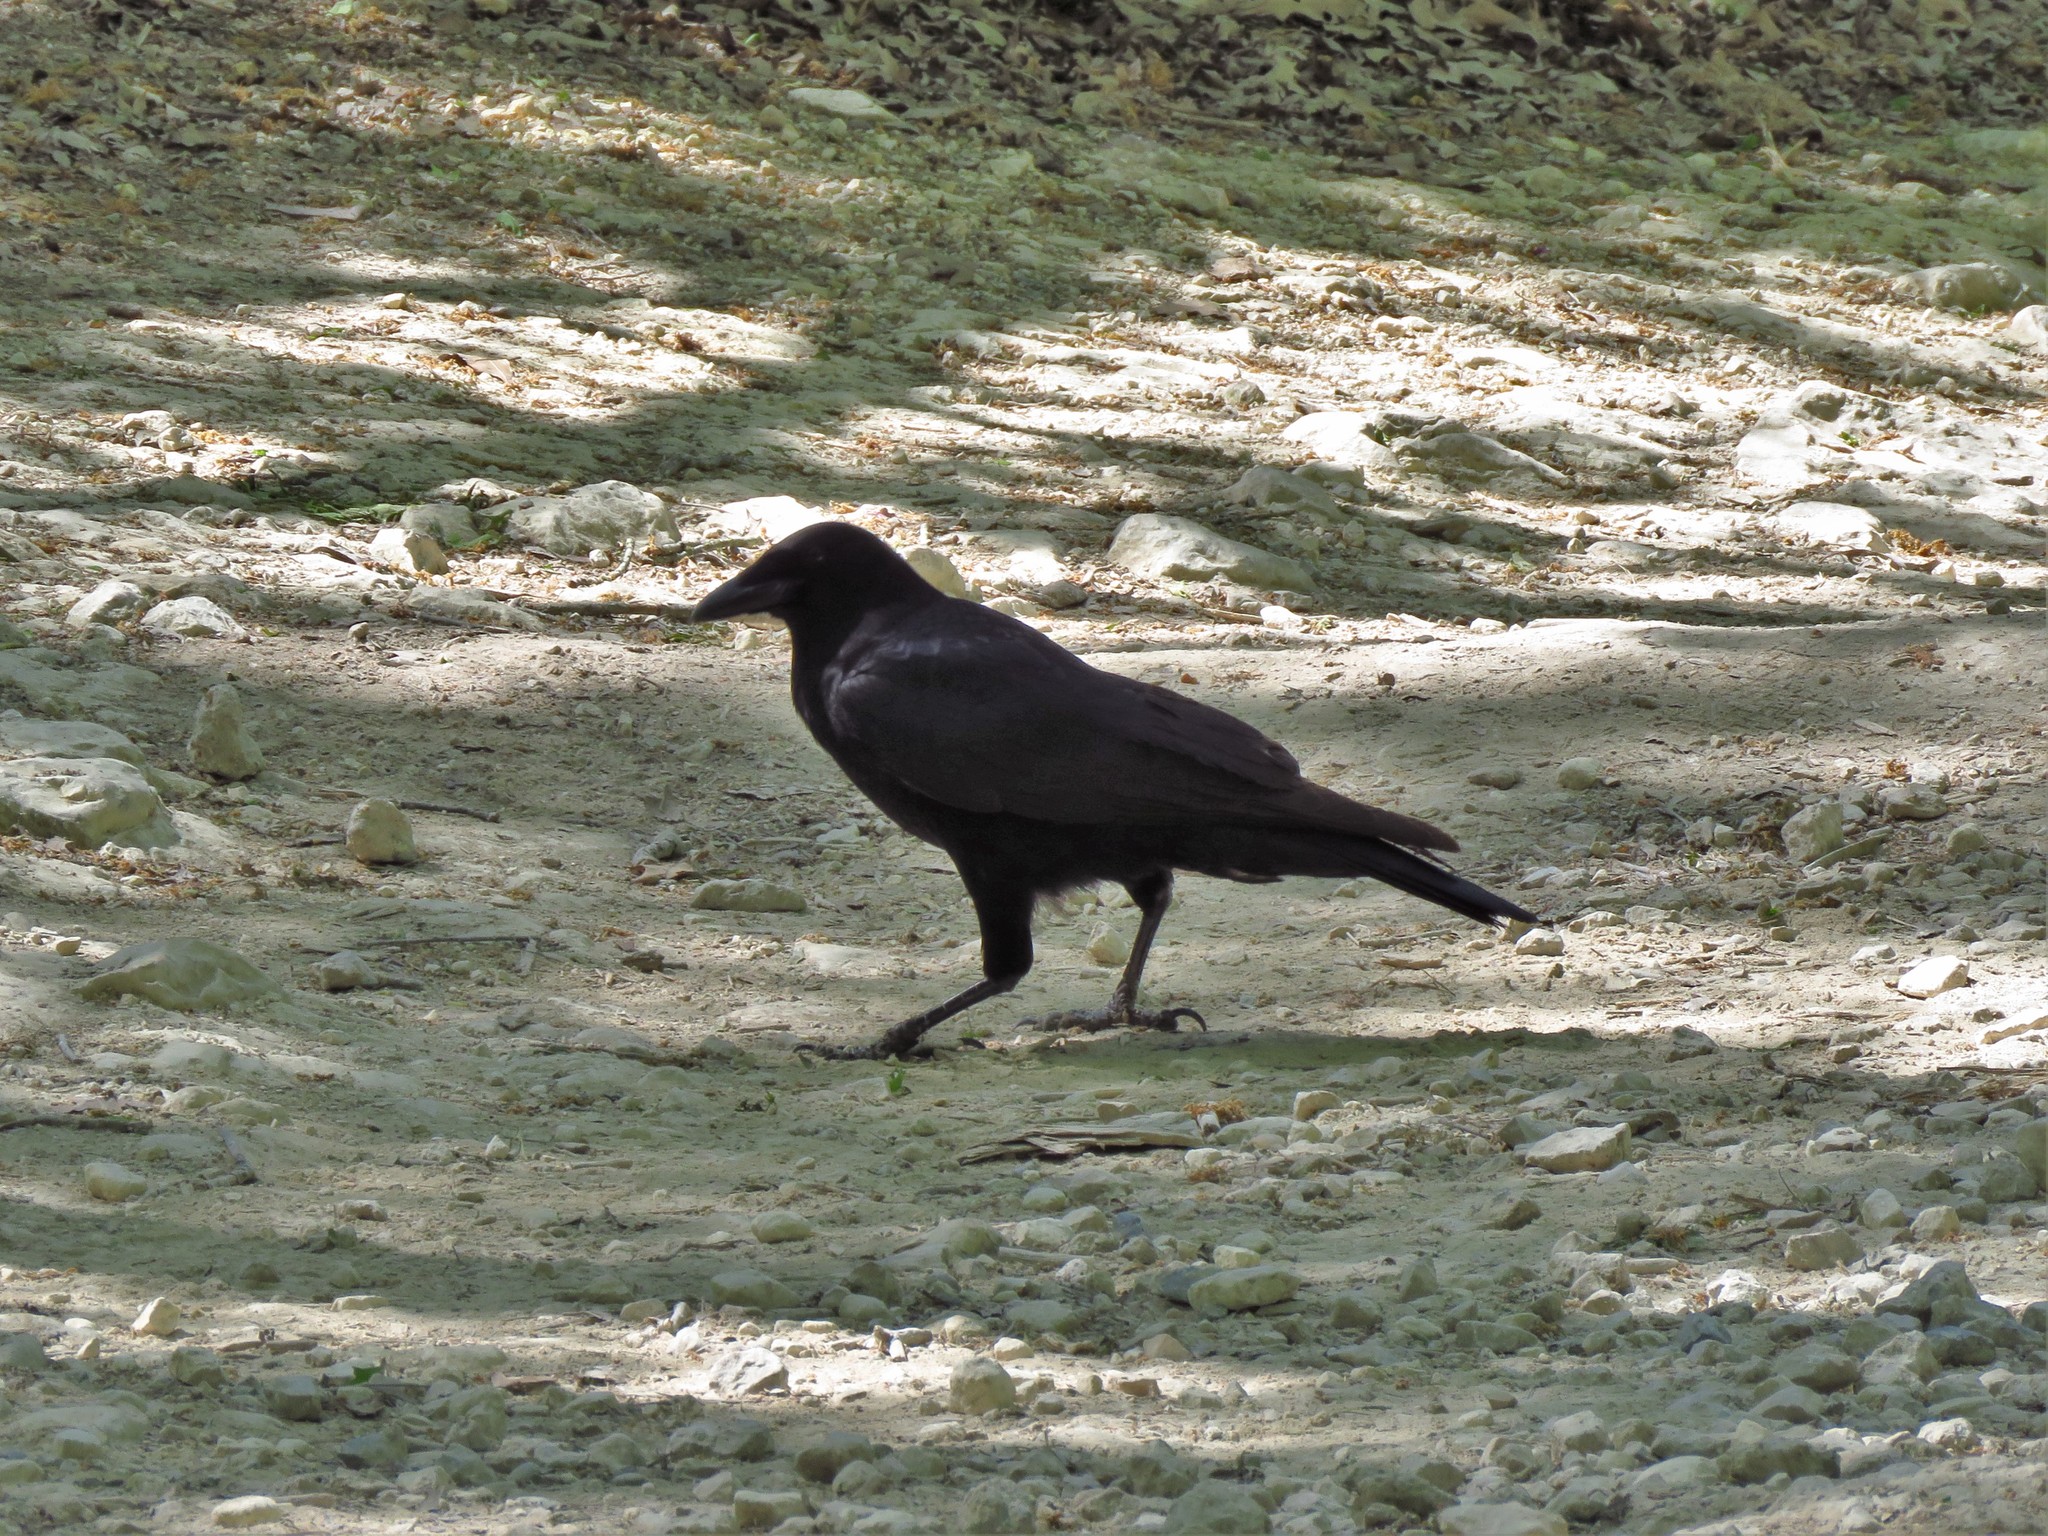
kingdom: Animalia
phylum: Chordata
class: Aves
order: Passeriformes
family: Corvidae
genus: Corvus
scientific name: Corvus brachyrhynchos
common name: American crow
